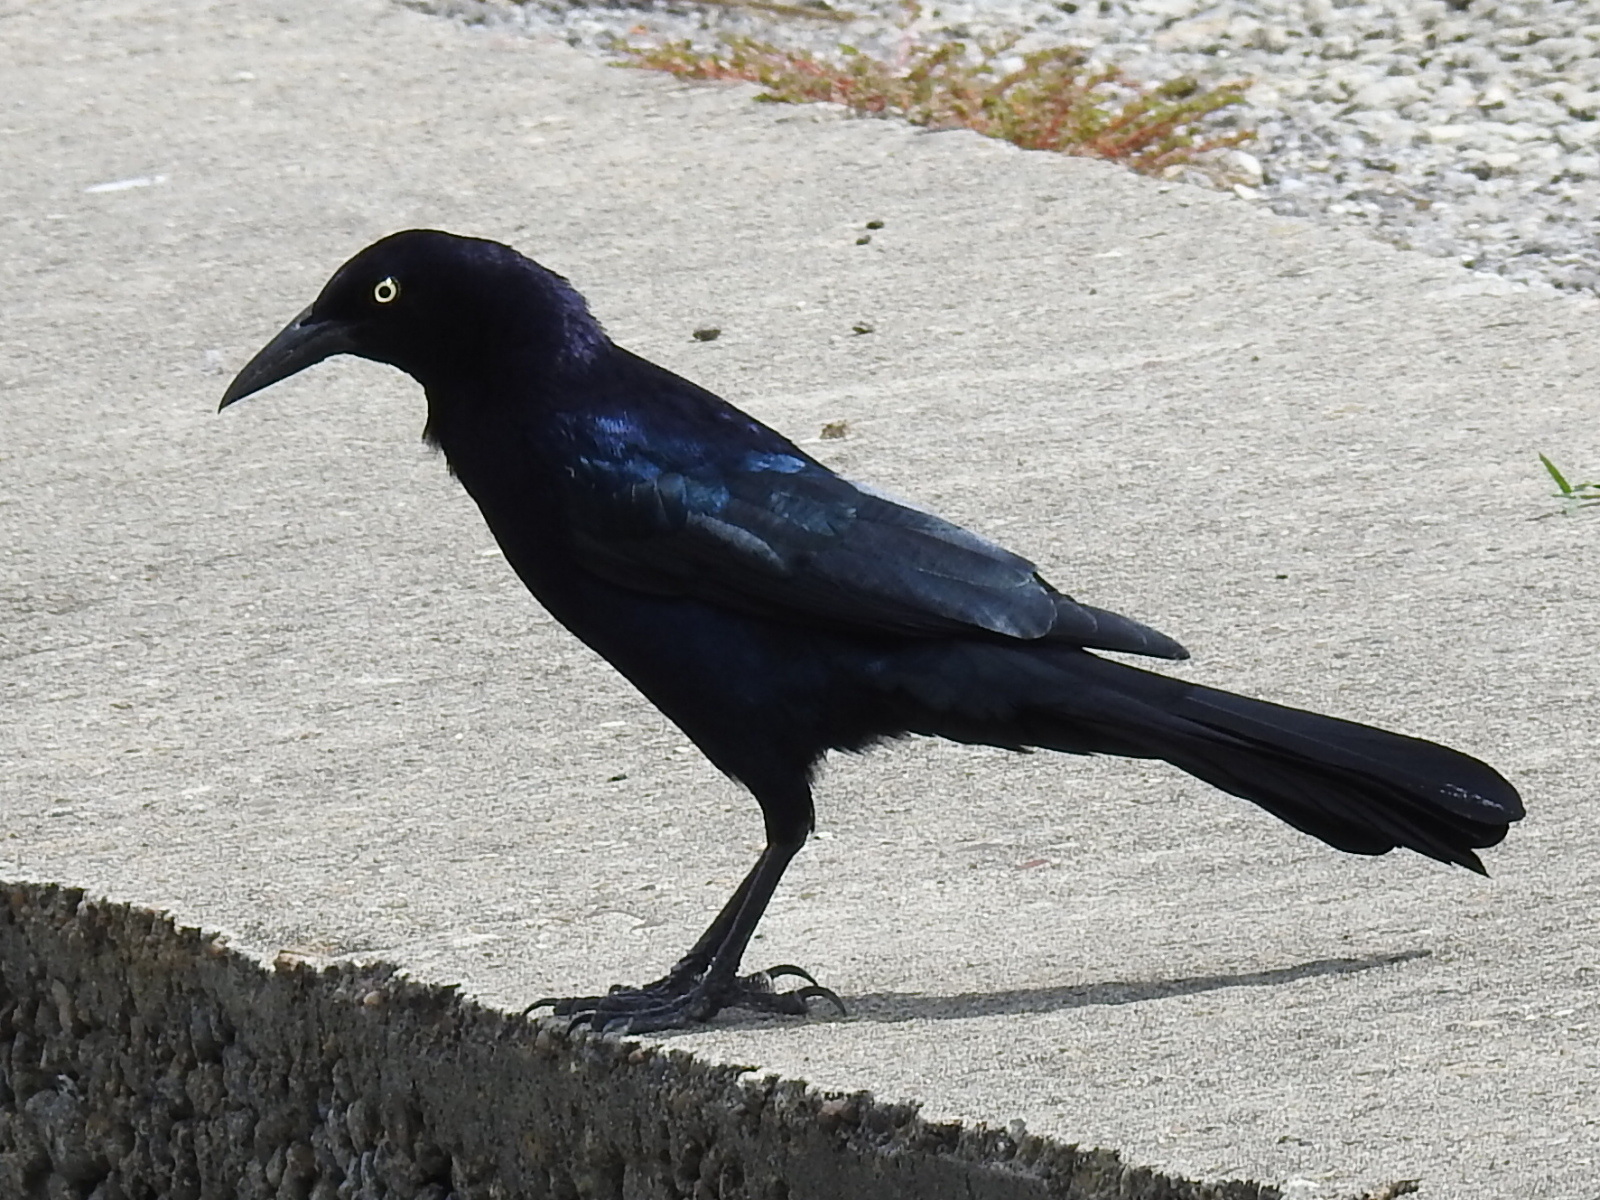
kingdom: Animalia
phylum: Chordata
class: Aves
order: Passeriformes
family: Icteridae
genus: Quiscalus
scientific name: Quiscalus mexicanus
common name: Great-tailed grackle
